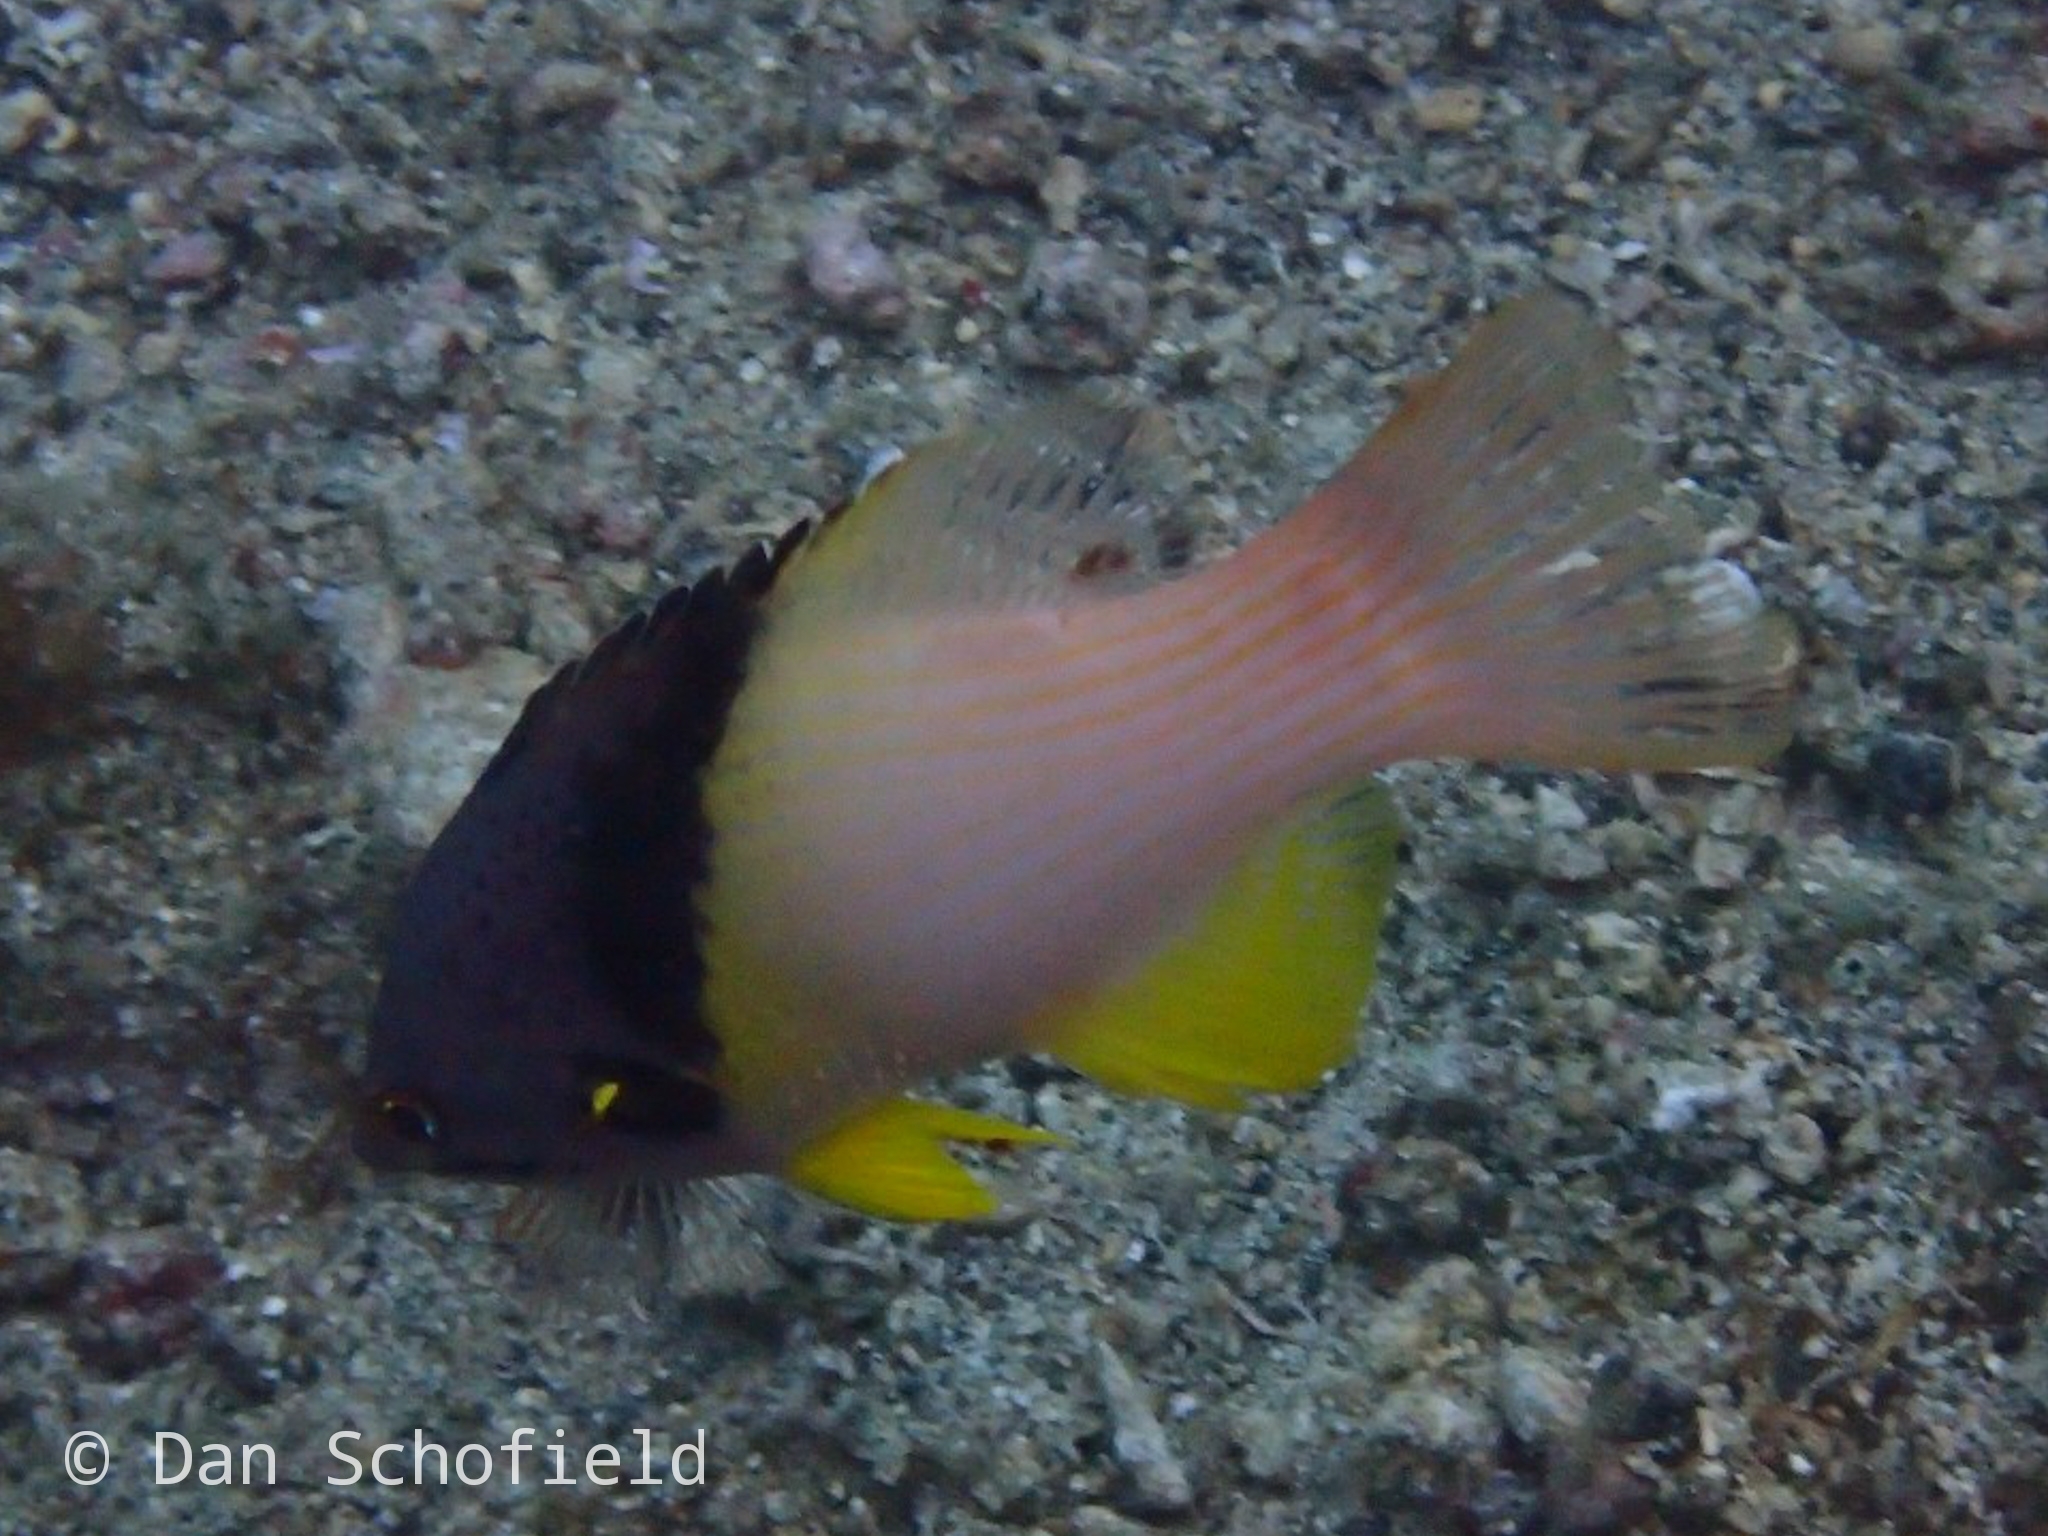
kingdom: Animalia
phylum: Chordata
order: Perciformes
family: Labridae
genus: Bodianus
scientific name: Bodianus mesothorax
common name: Coral hogfish
